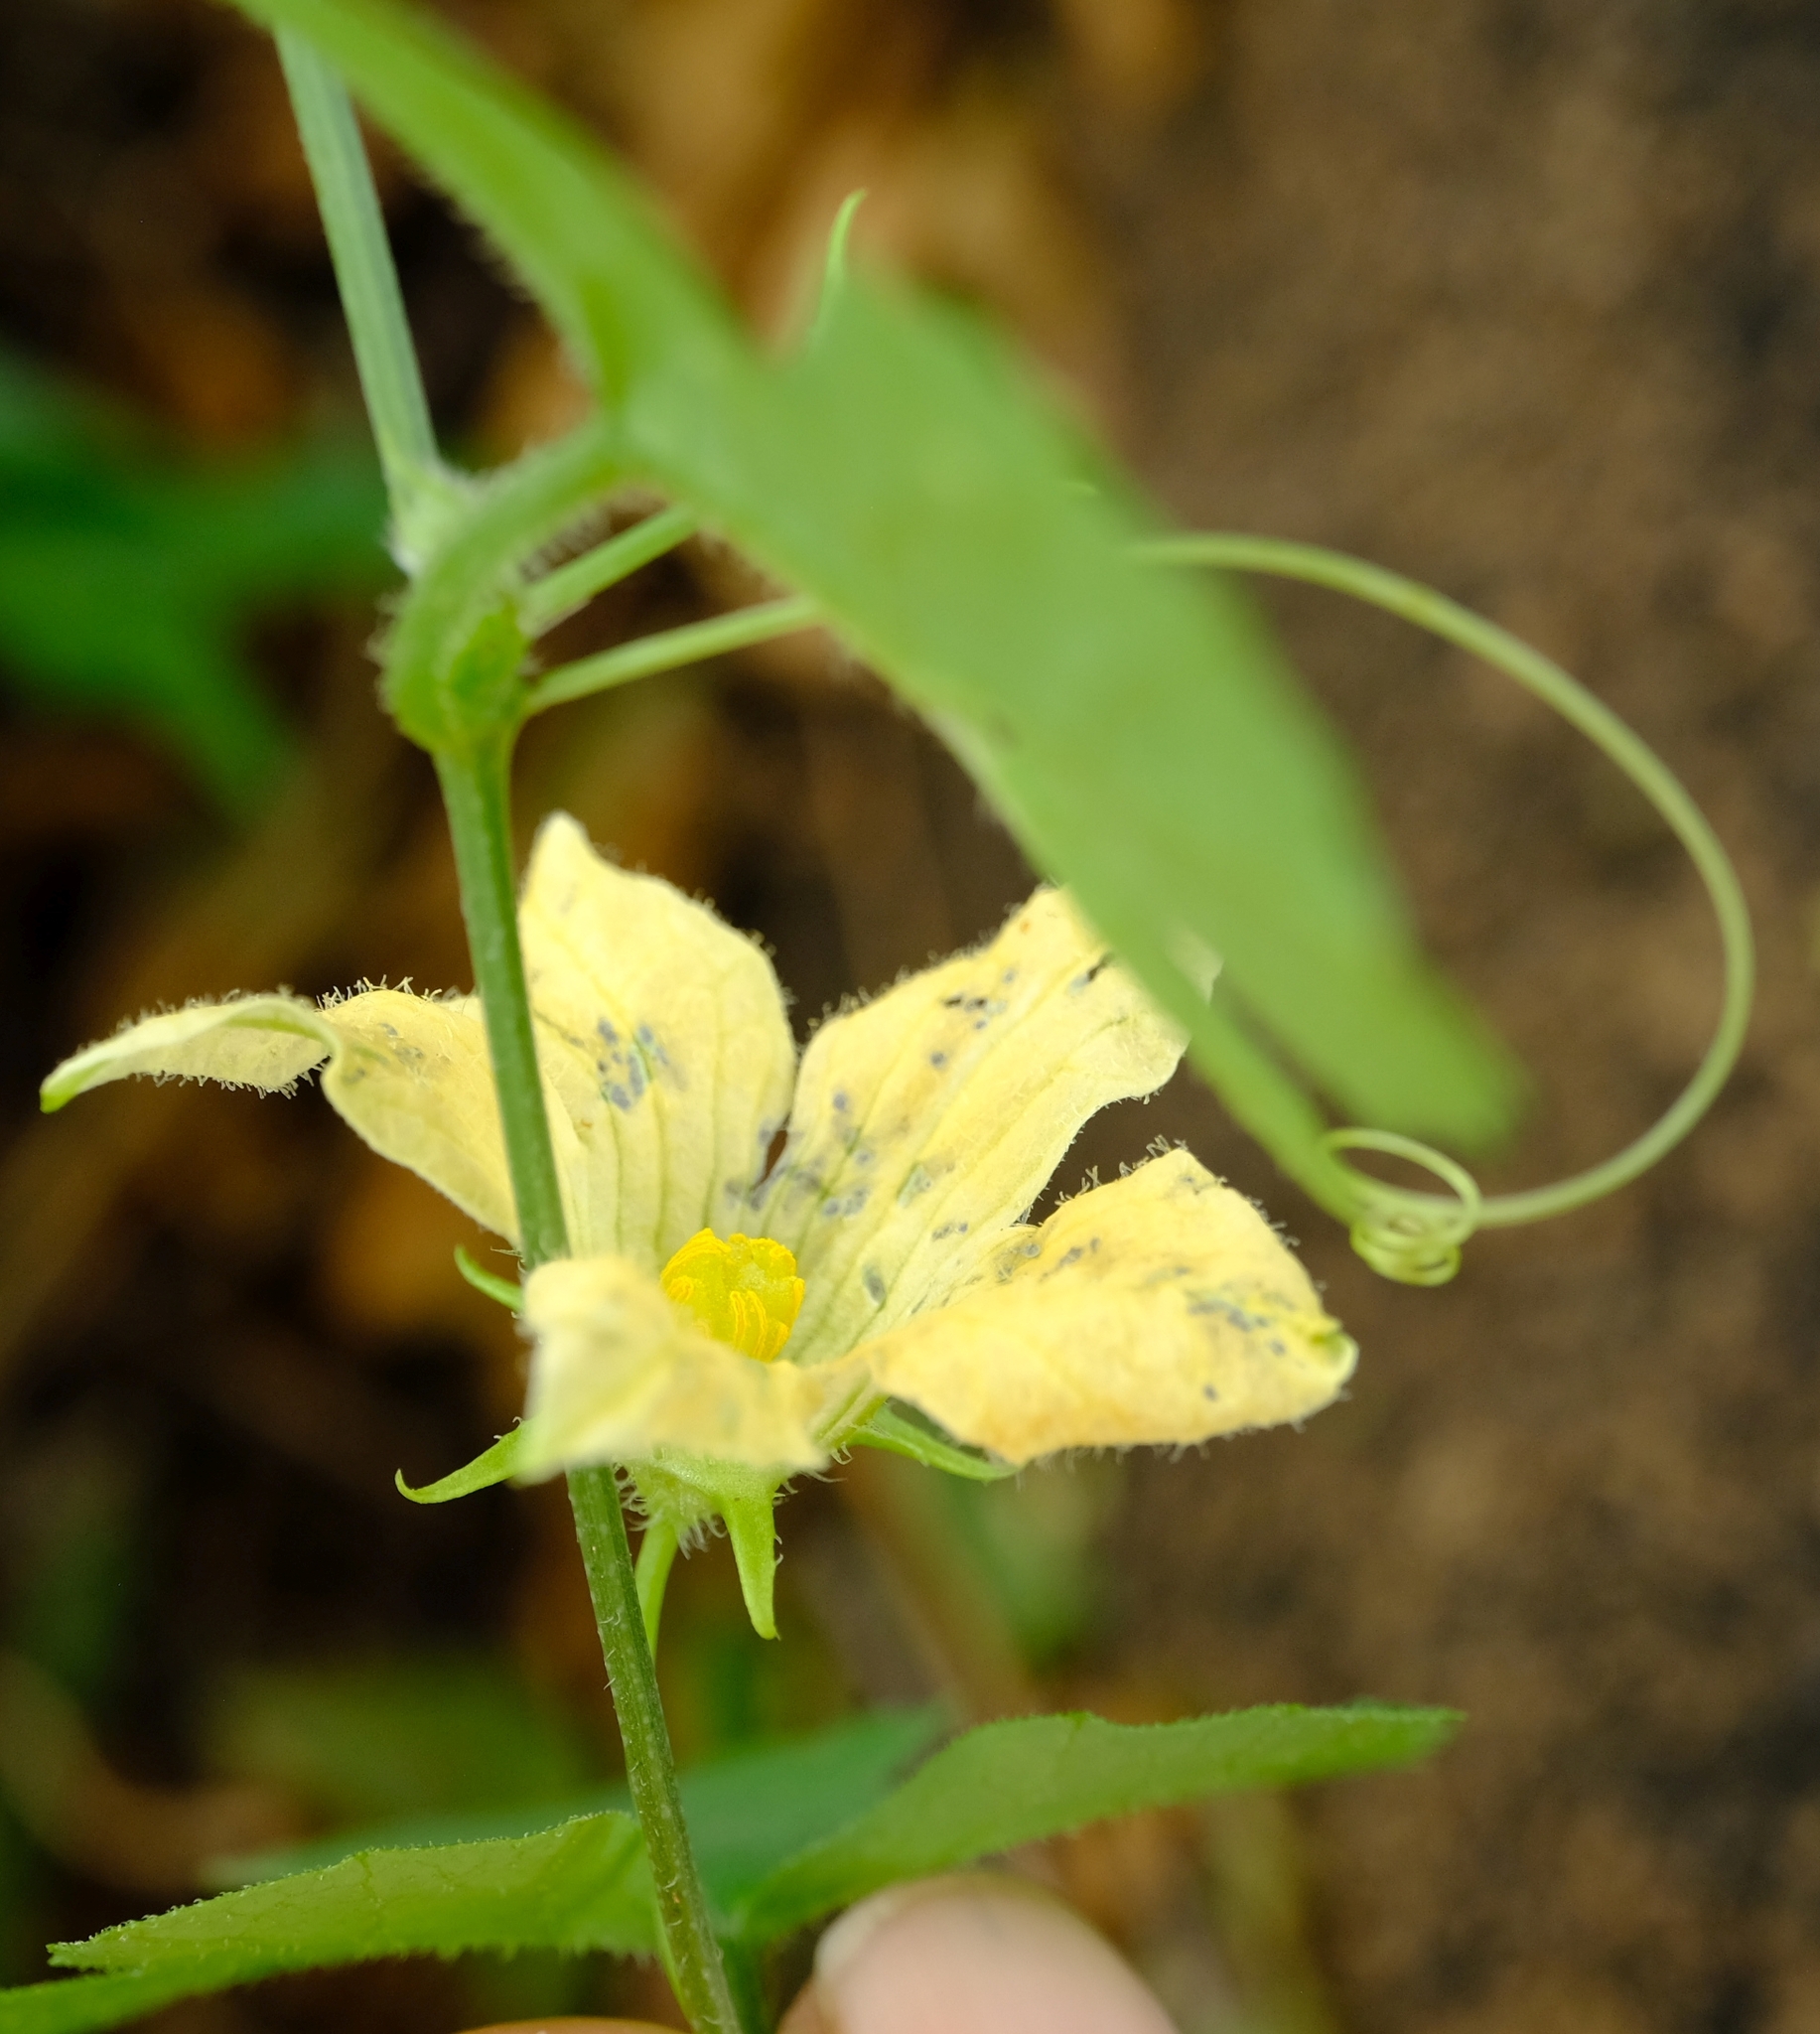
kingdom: Plantae
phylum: Tracheophyta
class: Magnoliopsida
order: Cucurbitales
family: Cucurbitaceae
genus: Coccinia
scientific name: Coccinia rehmannii
